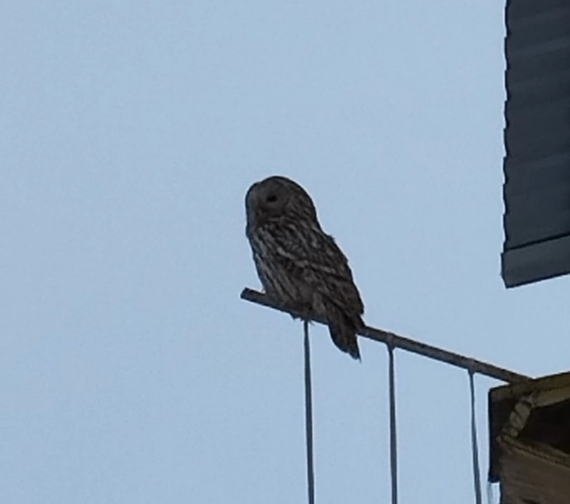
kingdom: Animalia
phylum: Chordata
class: Aves
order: Strigiformes
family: Strigidae
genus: Strix
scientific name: Strix uralensis
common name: Ural owl
